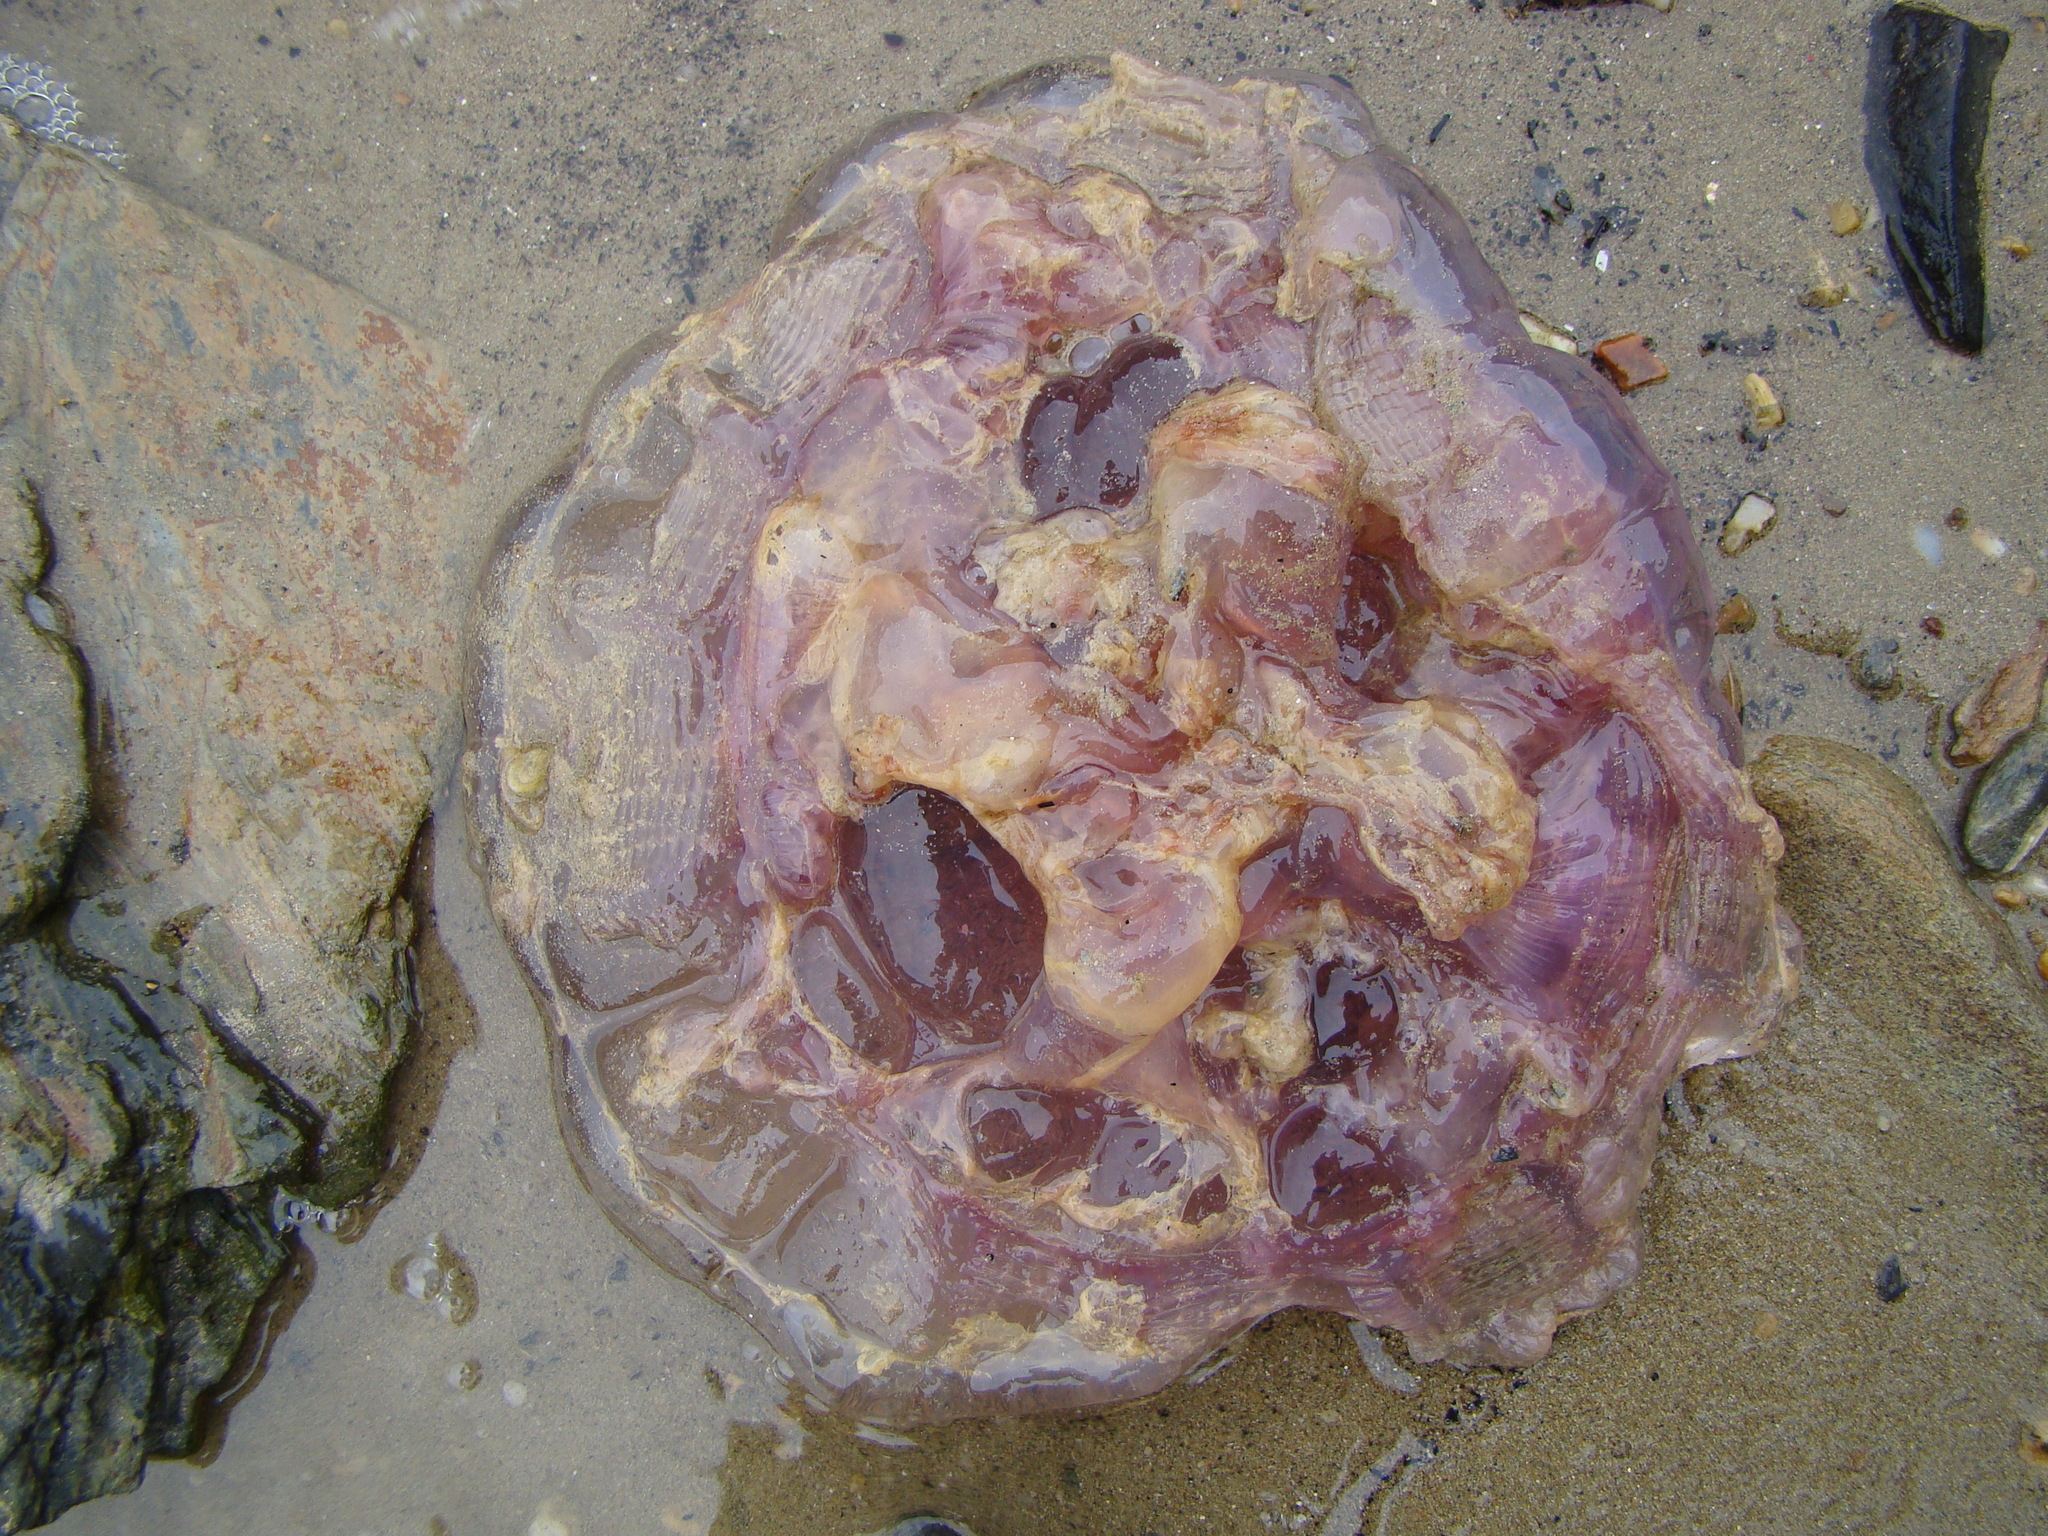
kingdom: Animalia
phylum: Cnidaria
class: Scyphozoa
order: Semaeostomeae
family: Cyaneidae
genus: Cyanea
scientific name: Cyanea
